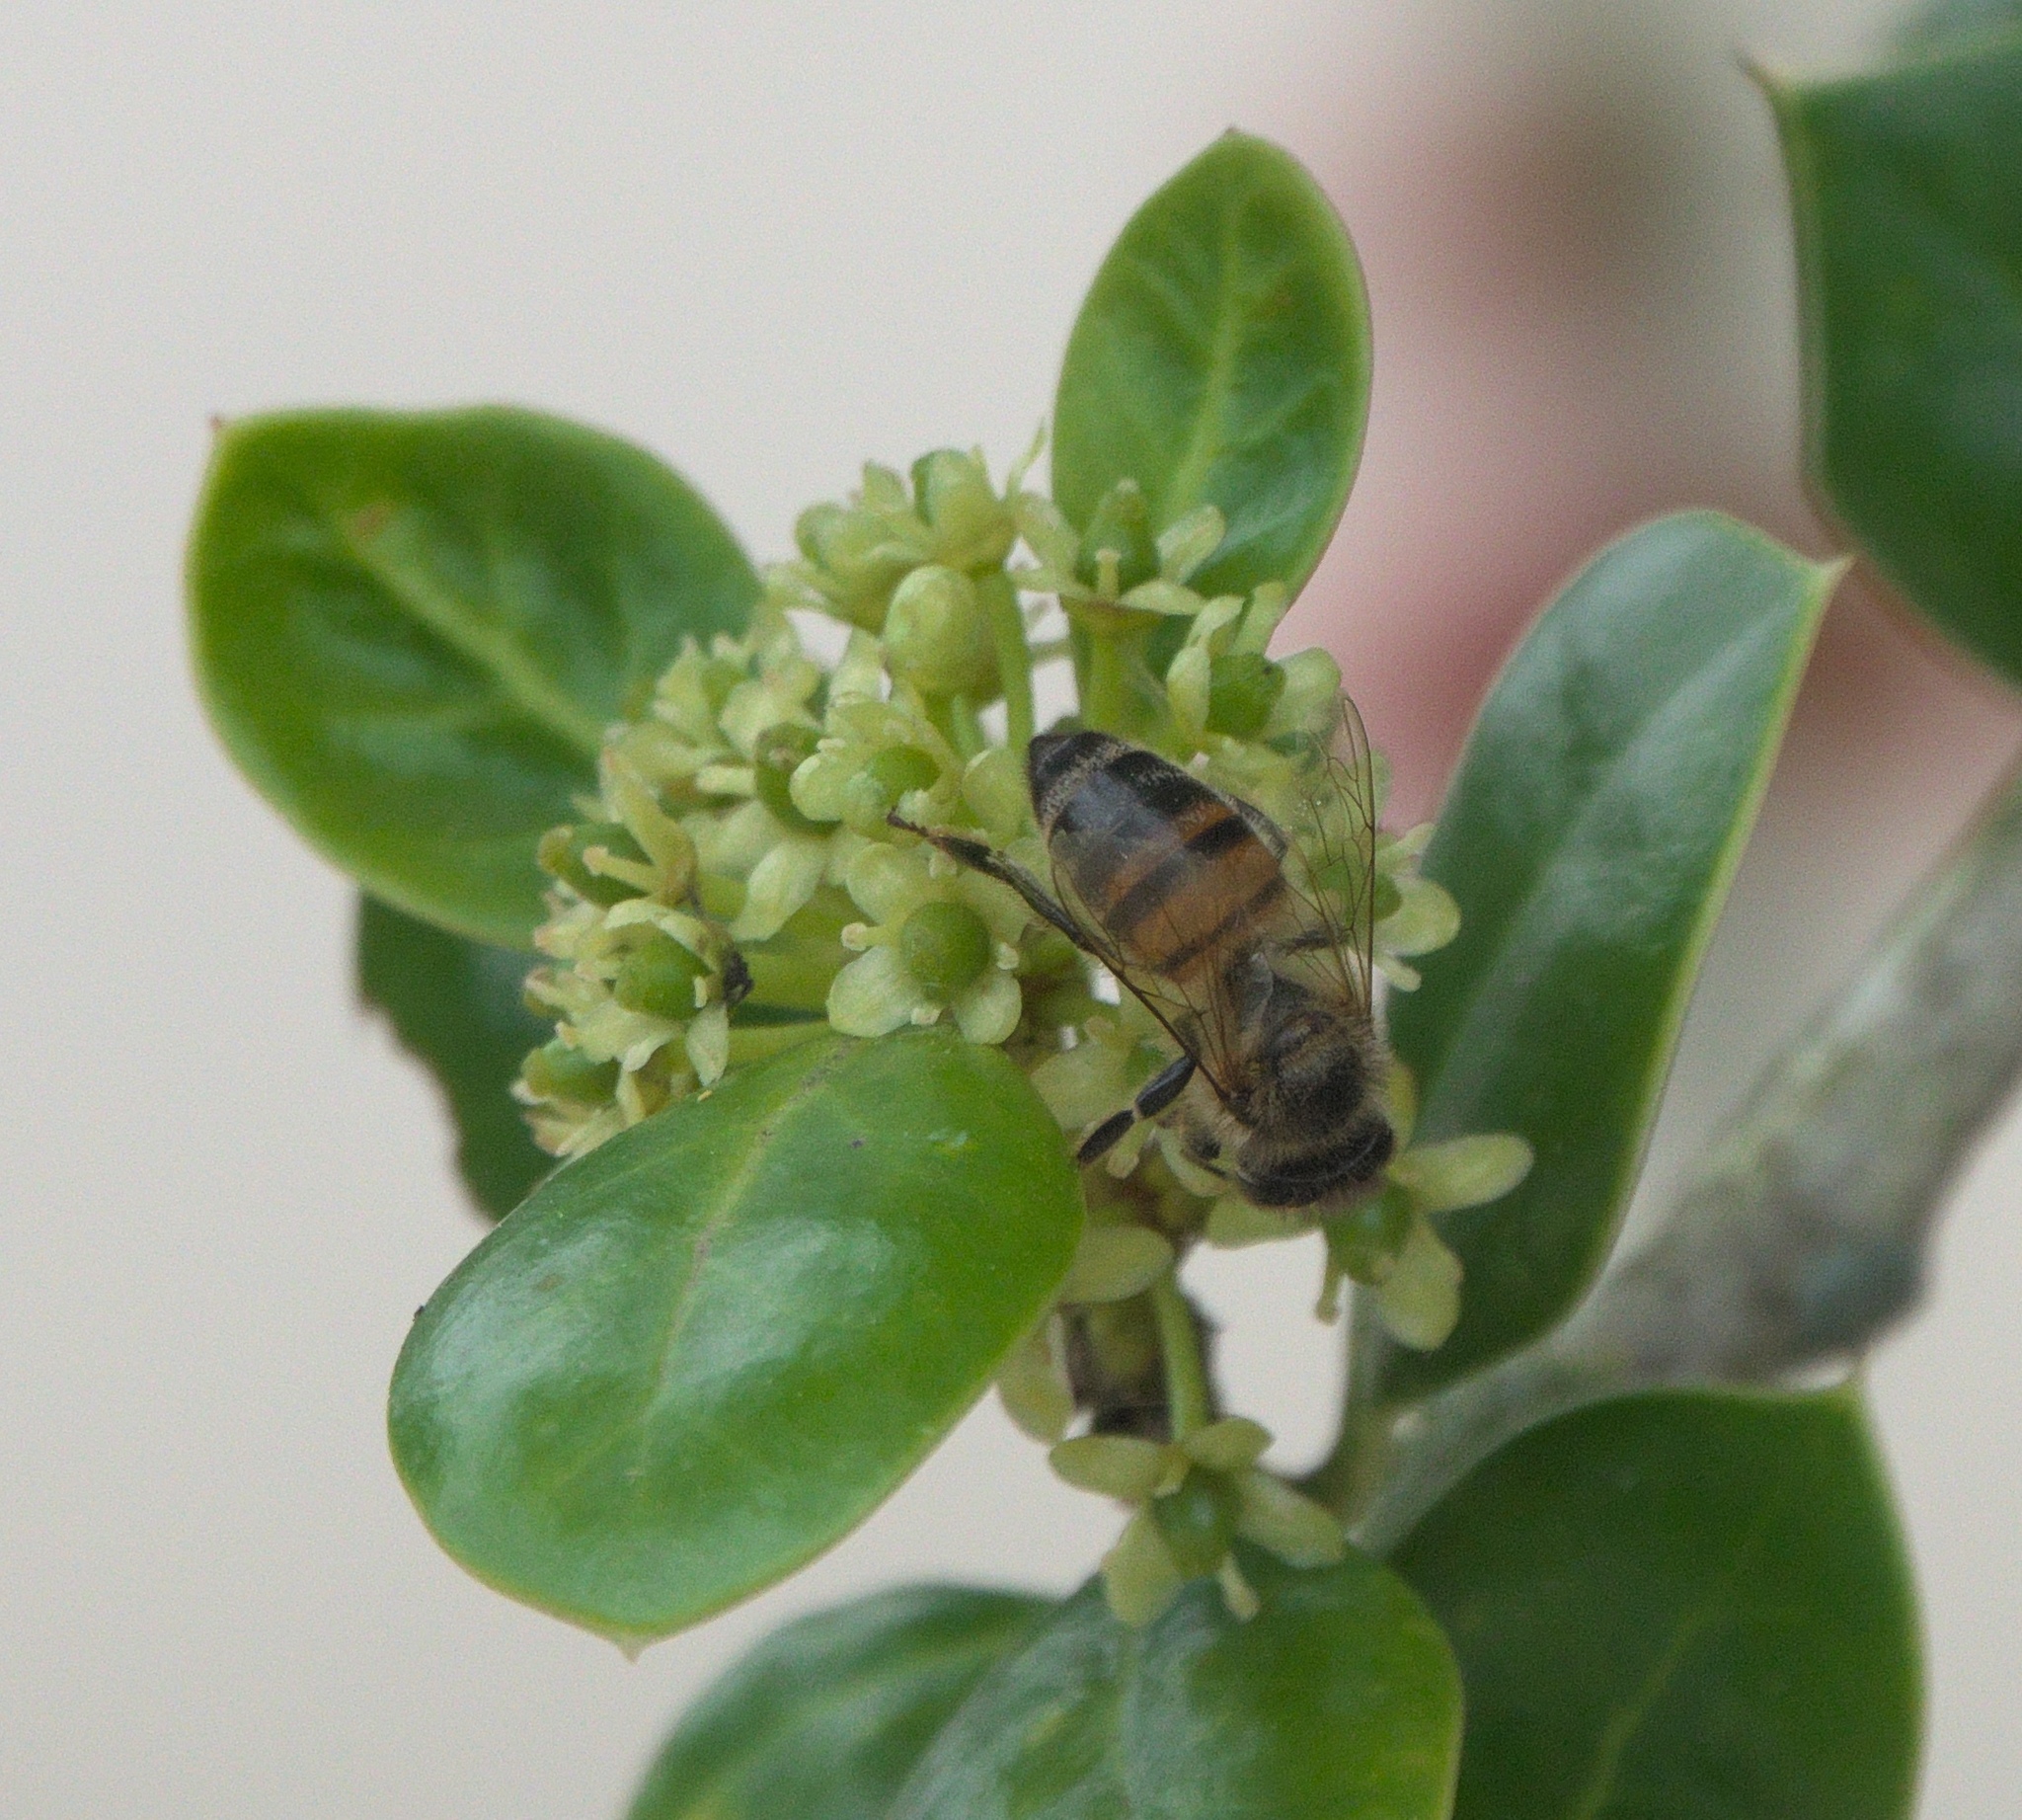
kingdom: Animalia
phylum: Arthropoda
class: Insecta
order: Hymenoptera
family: Apidae
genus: Apis
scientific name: Apis mellifera
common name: Honey bee
